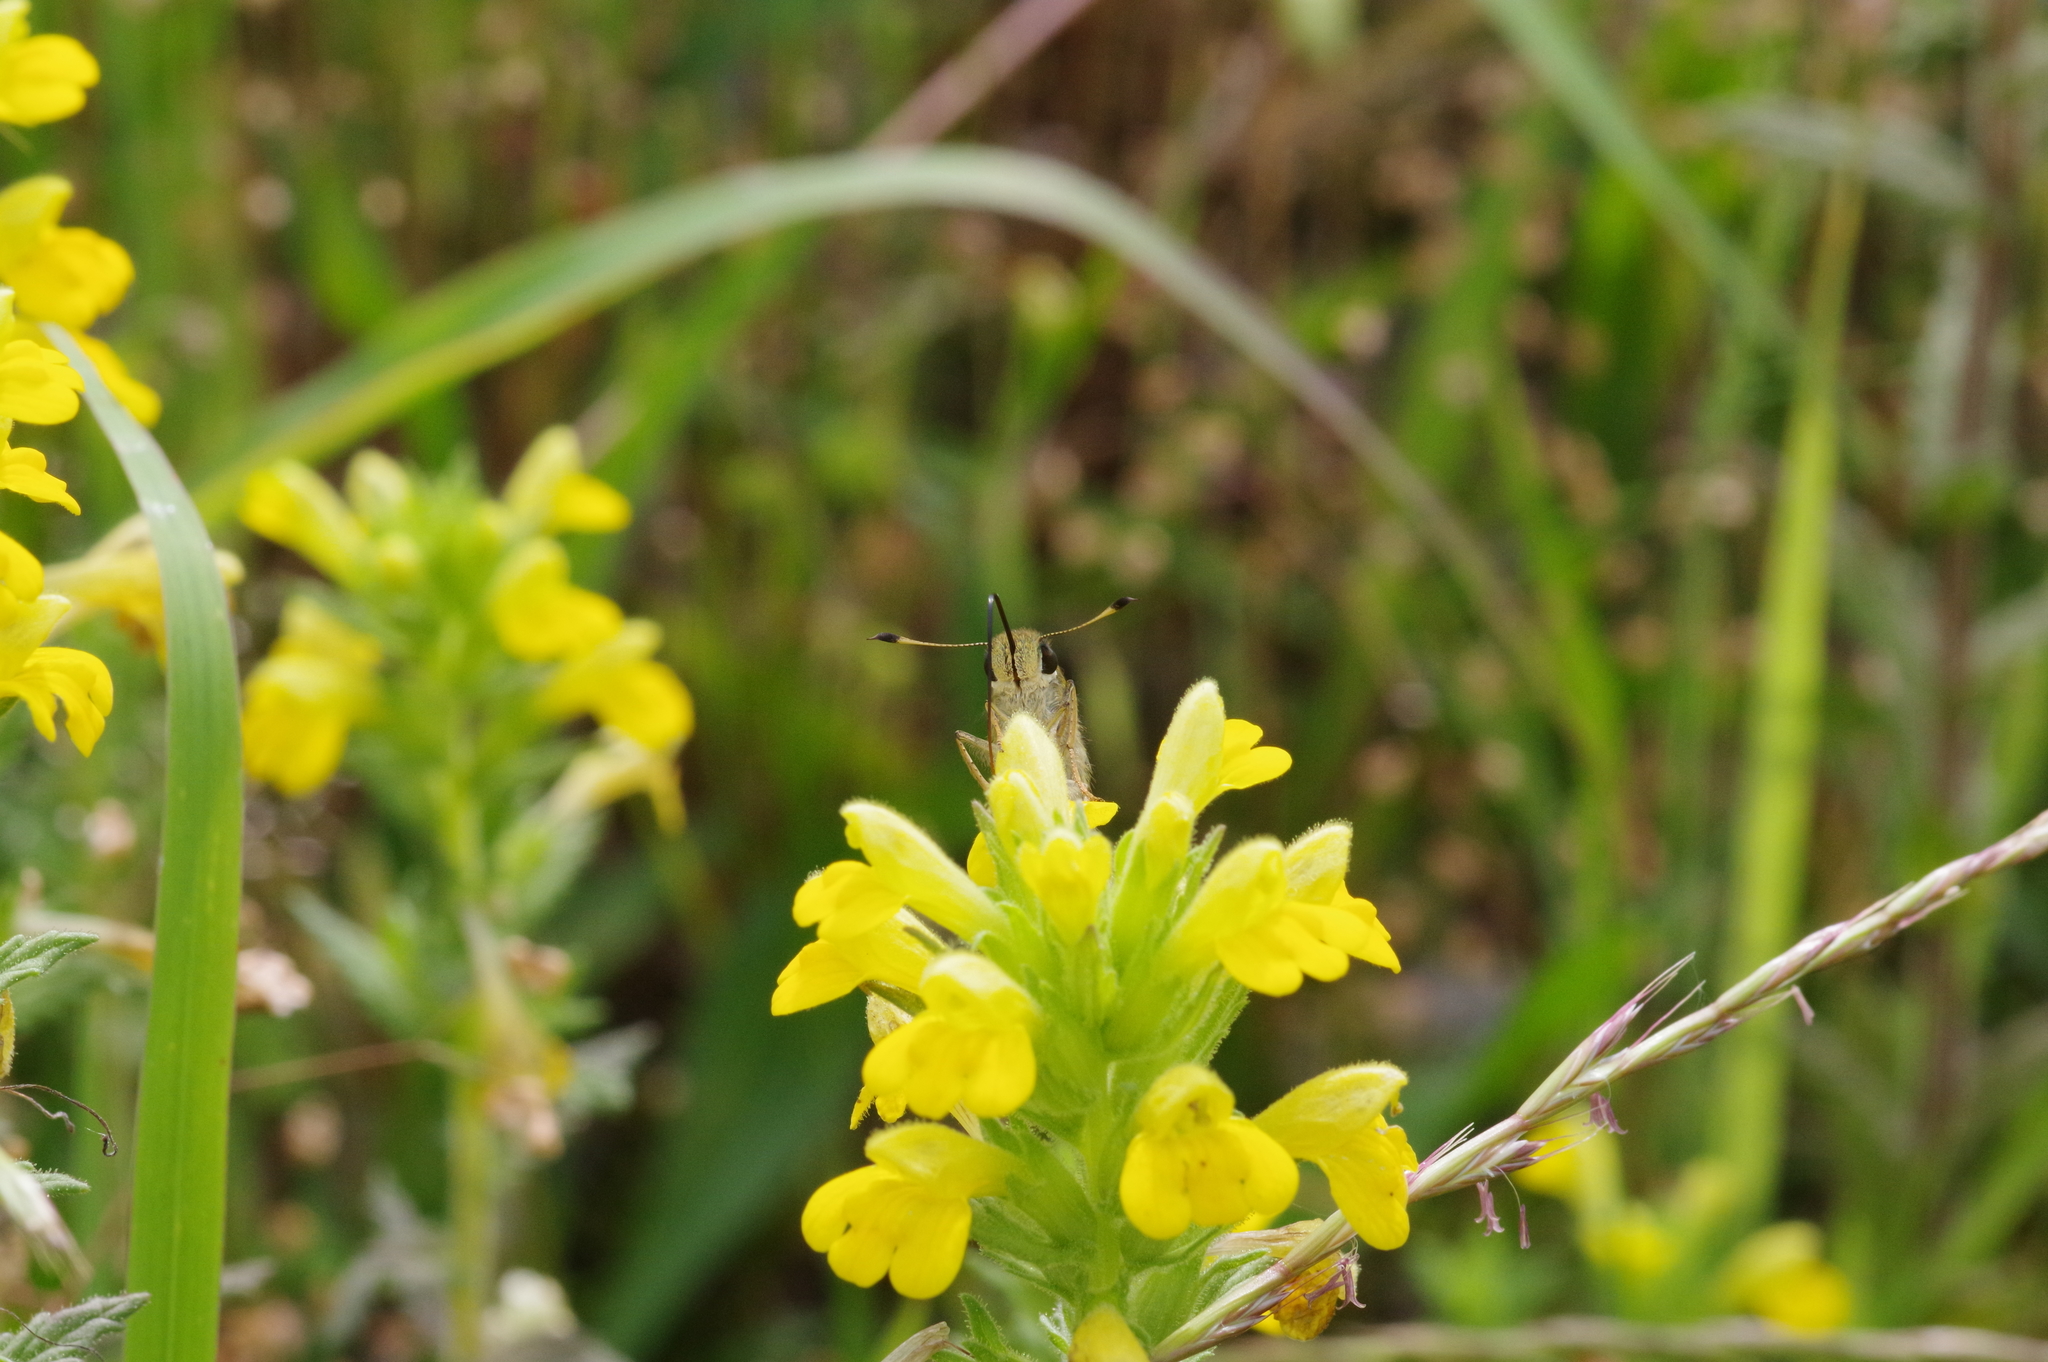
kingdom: Animalia
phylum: Arthropoda
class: Insecta
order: Lepidoptera
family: Hesperiidae
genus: Pelopidas
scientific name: Pelopidas mathias
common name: Black-branded swift
